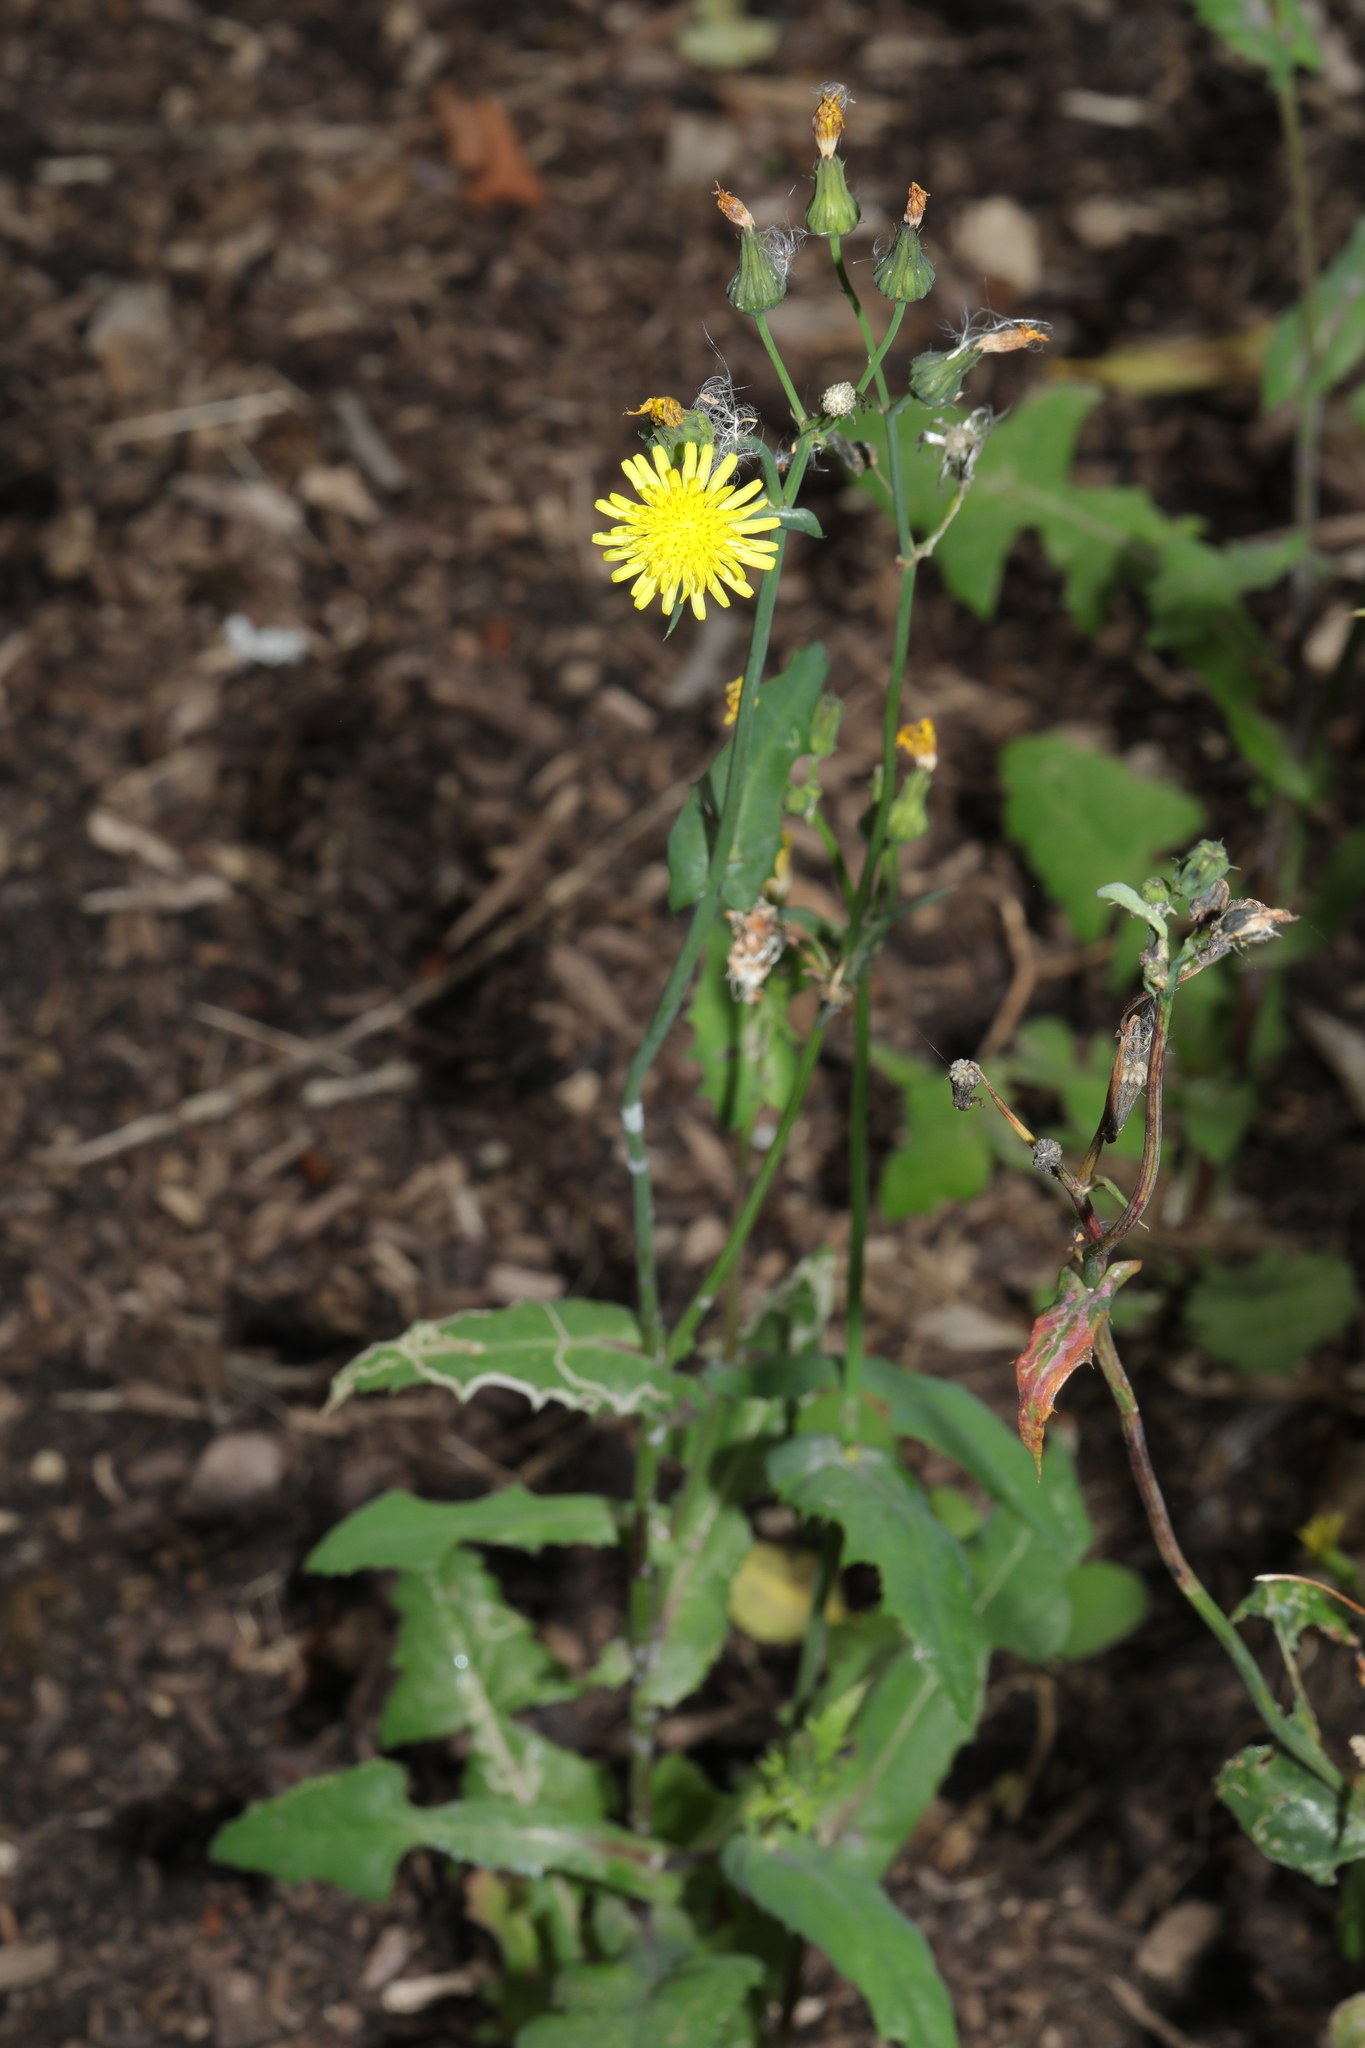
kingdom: Plantae
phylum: Tracheophyta
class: Magnoliopsida
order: Asterales
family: Asteraceae
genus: Sonchus
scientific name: Sonchus oleraceus
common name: Common sowthistle
